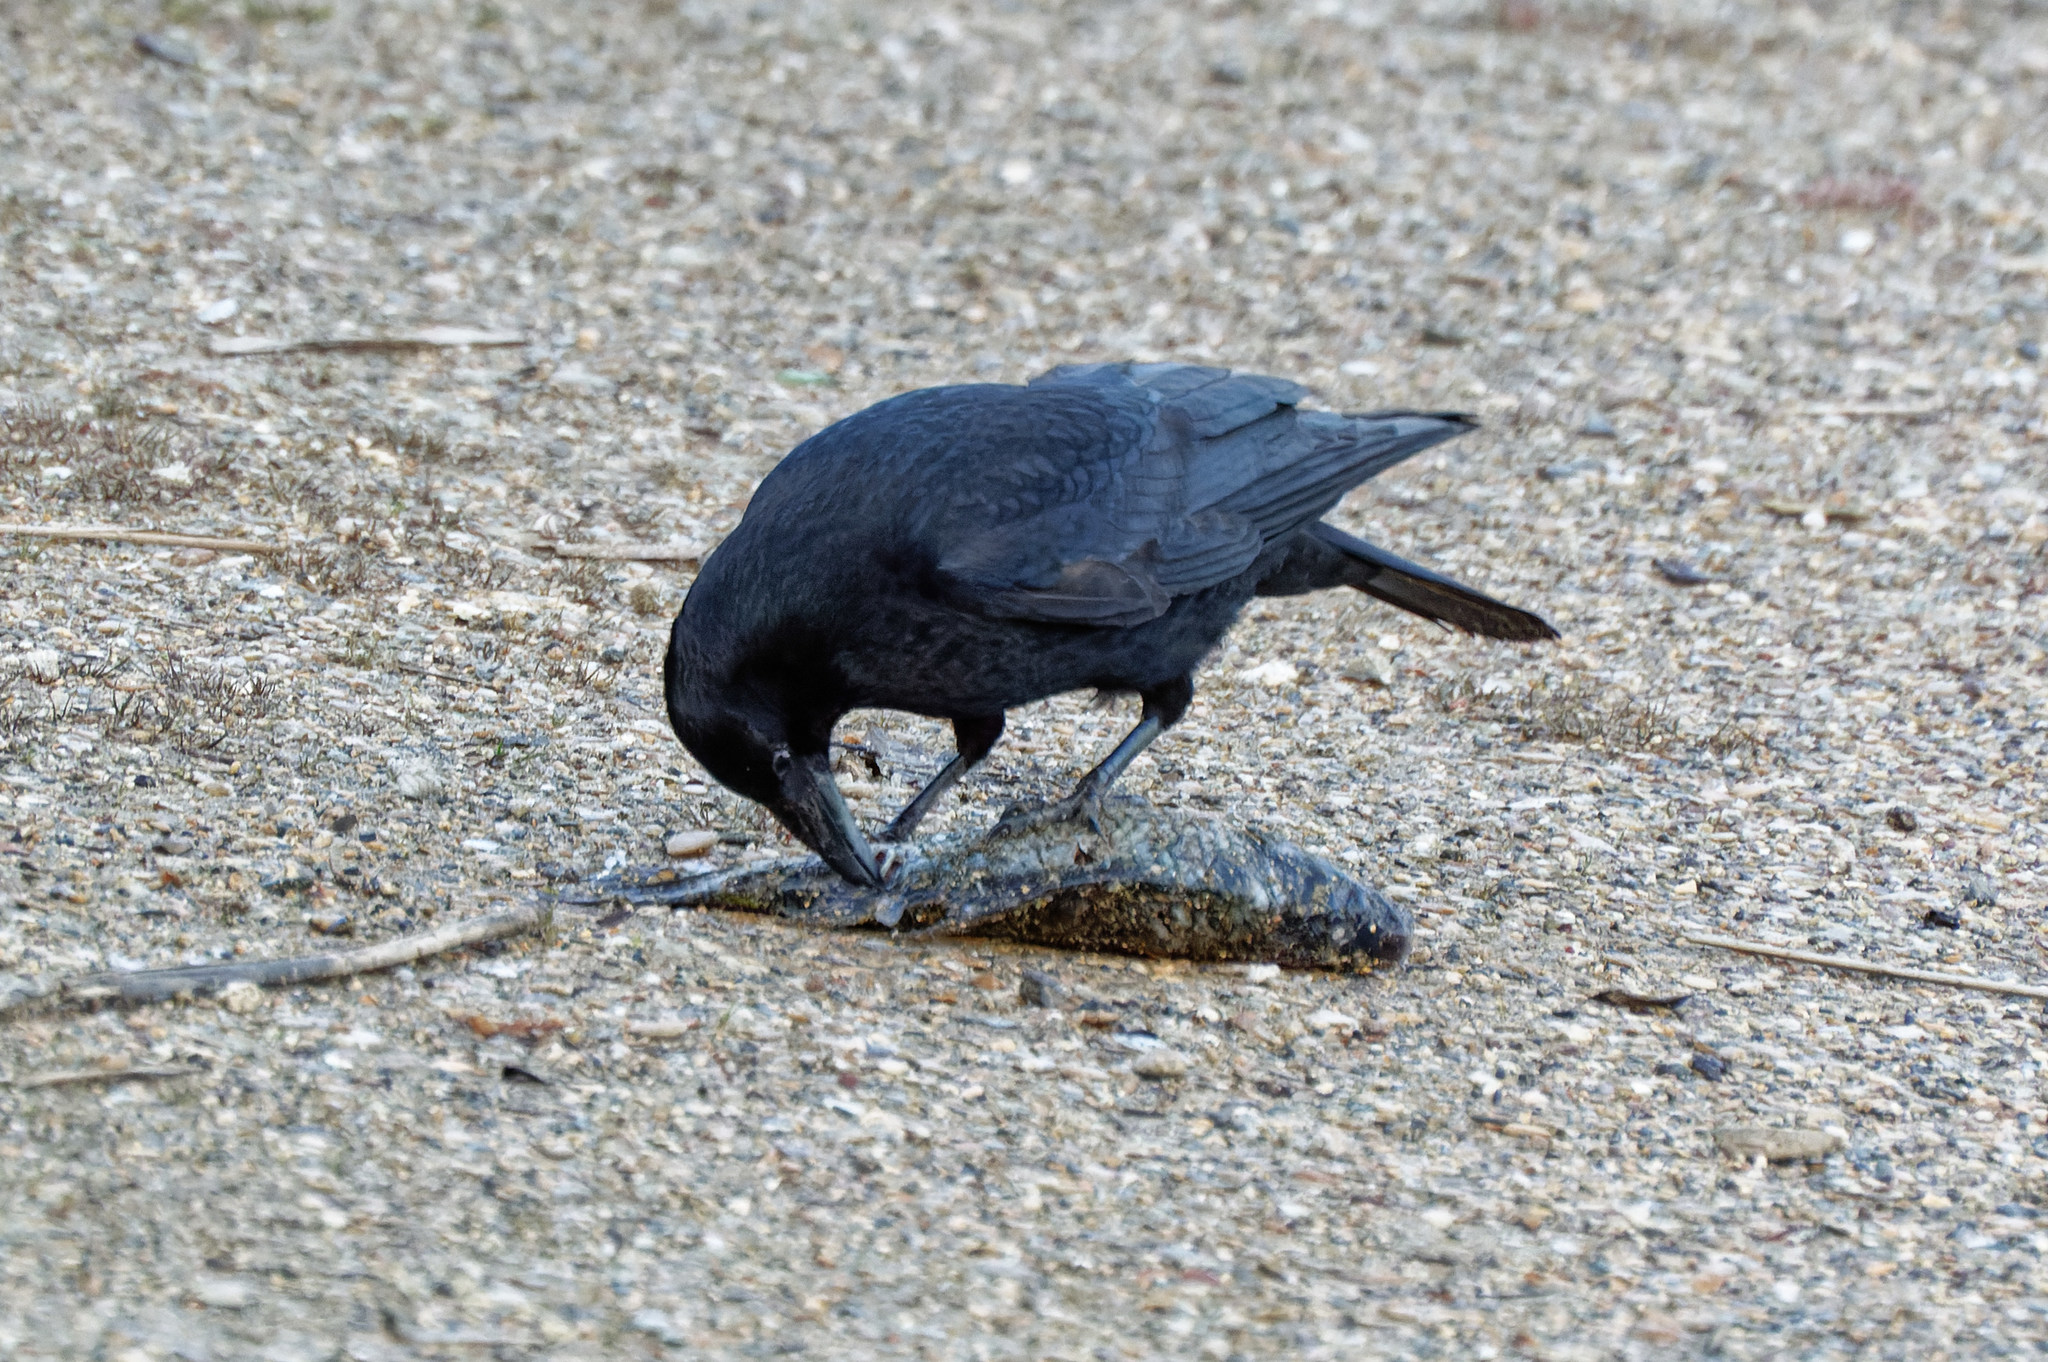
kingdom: Animalia
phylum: Chordata
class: Aves
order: Passeriformes
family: Corvidae
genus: Corvus
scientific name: Corvus corone
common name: Carrion crow
